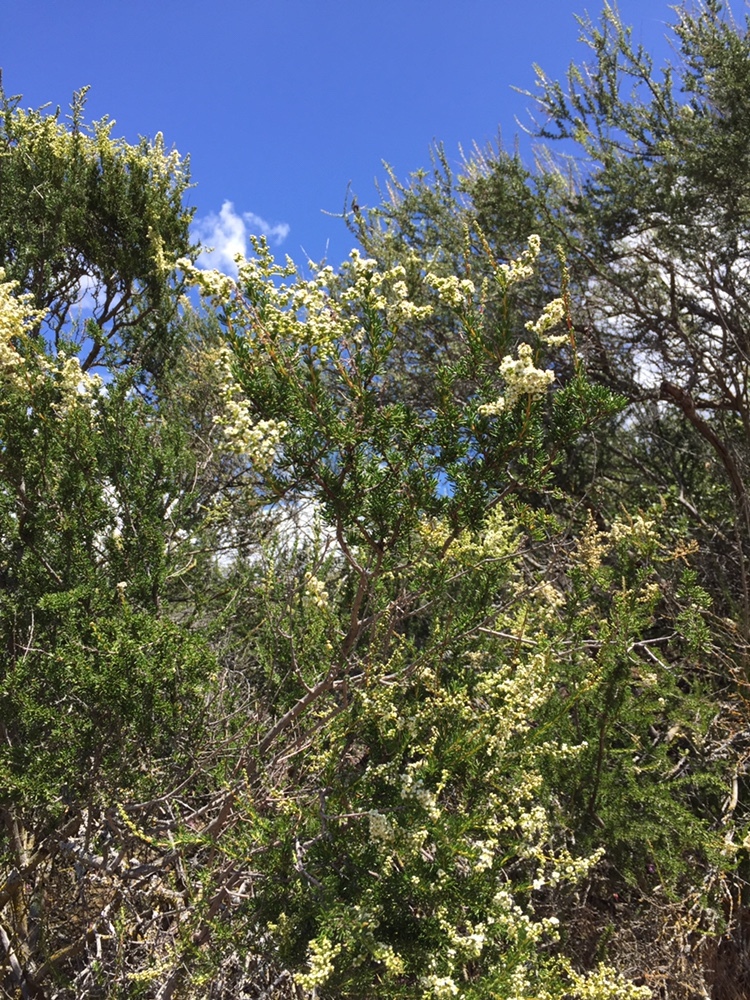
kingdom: Plantae
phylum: Tracheophyta
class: Magnoliopsida
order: Rosales
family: Rosaceae
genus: Adenostoma
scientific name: Adenostoma fasciculatum
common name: Chamise
